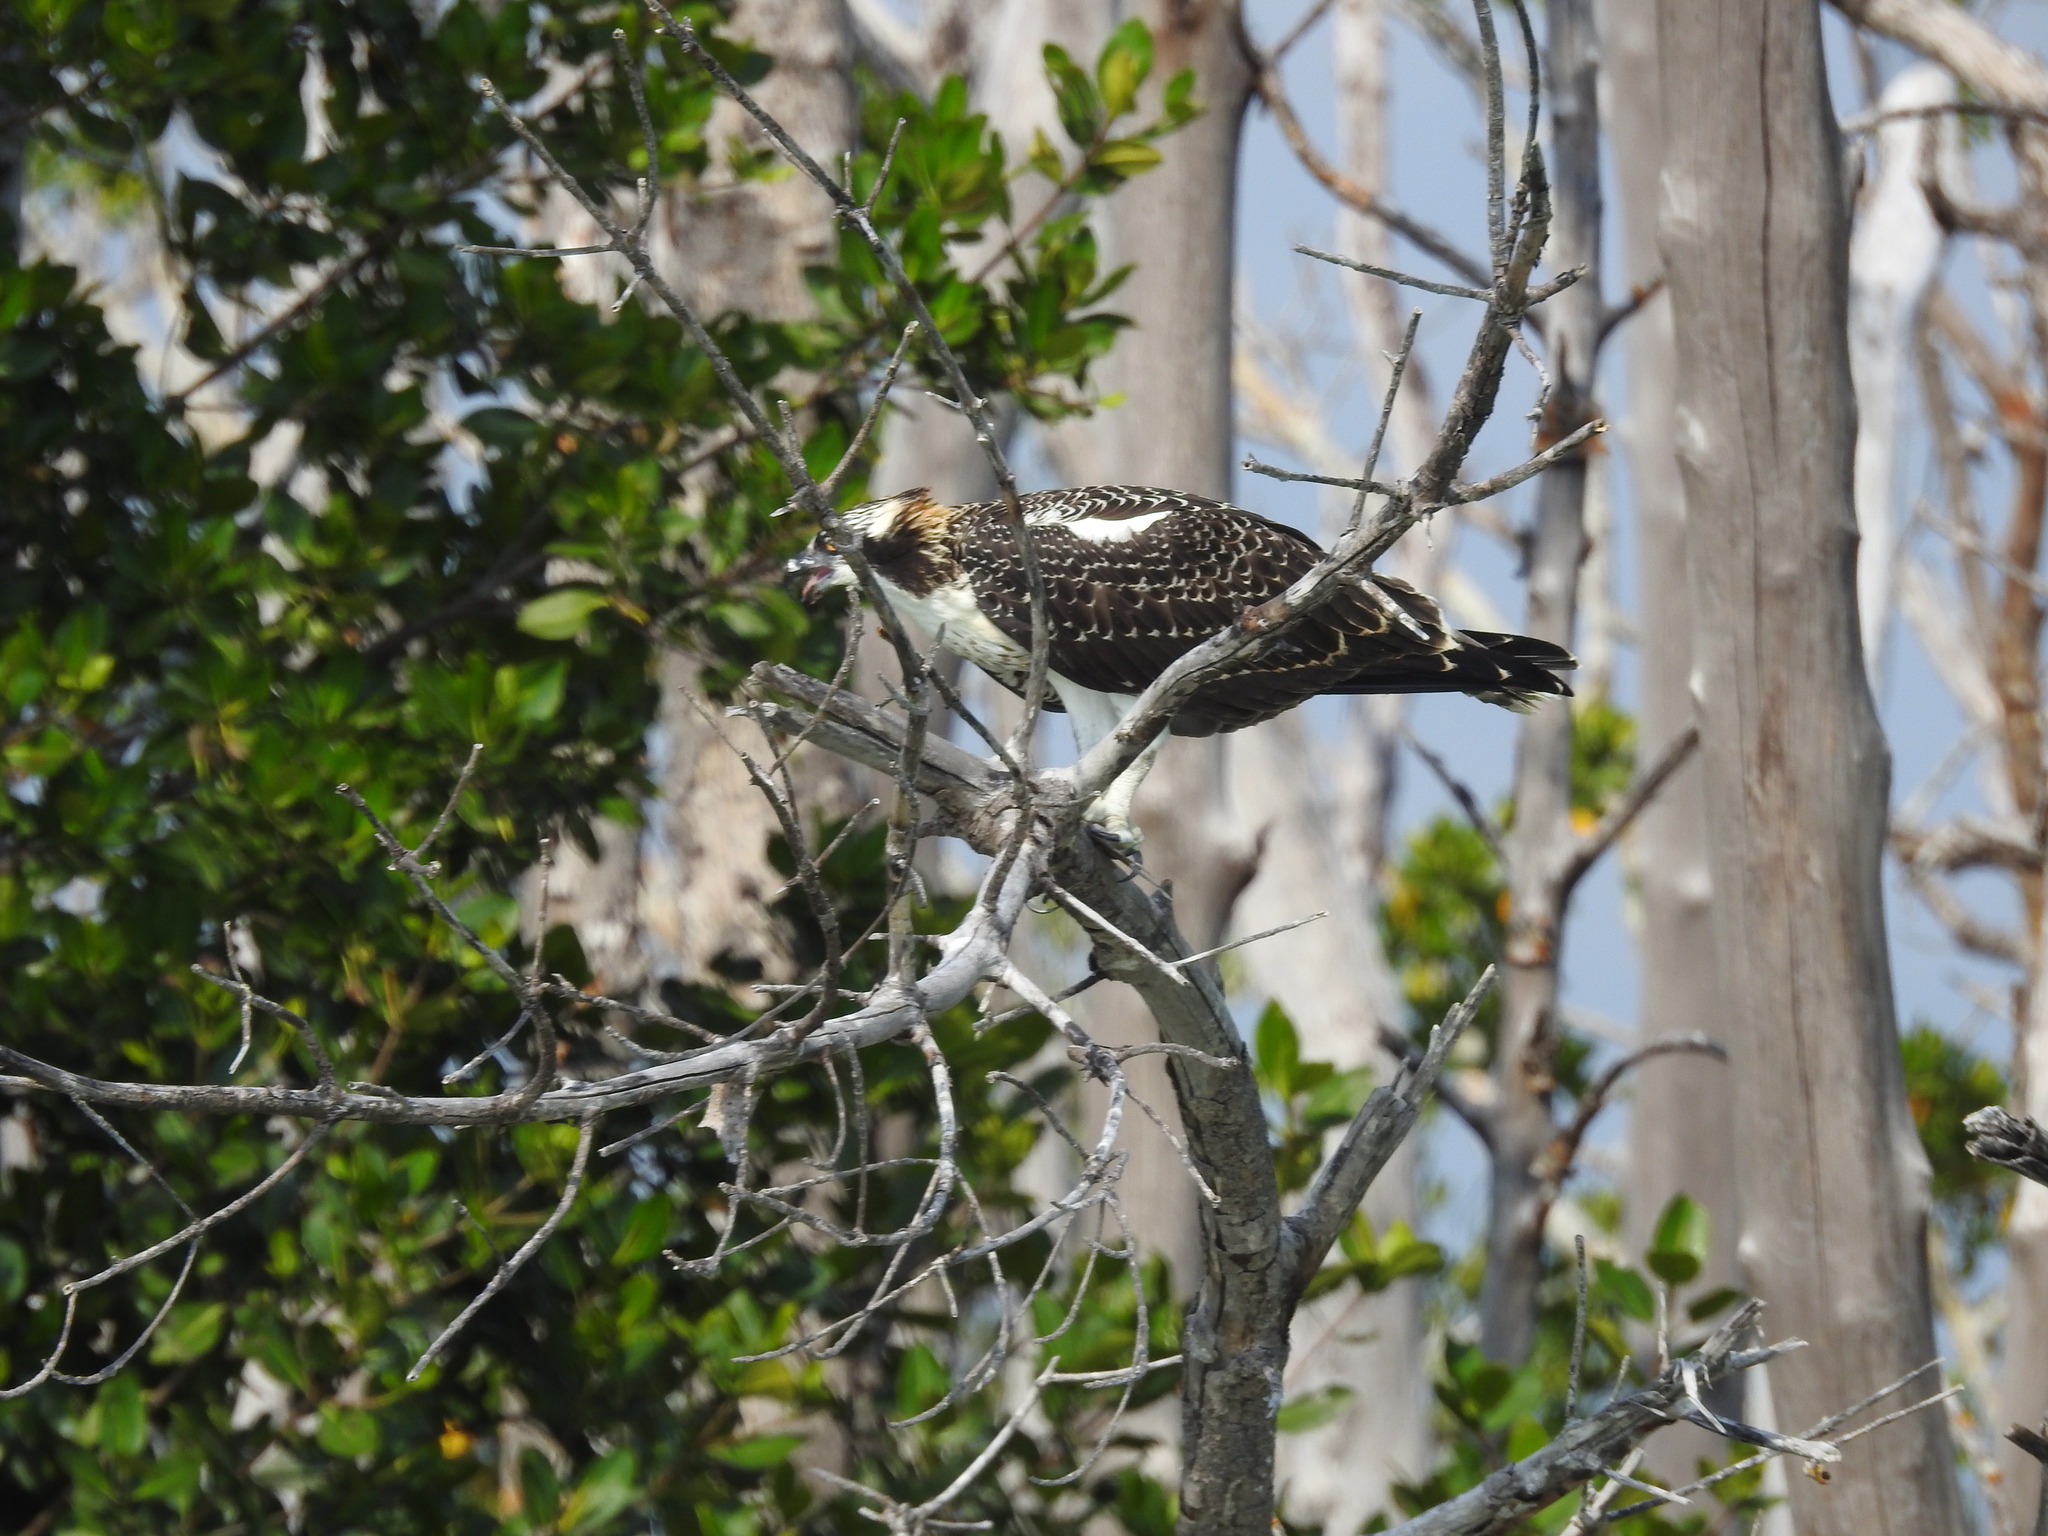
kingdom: Animalia
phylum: Chordata
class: Aves
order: Accipitriformes
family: Pandionidae
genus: Pandion
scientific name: Pandion haliaetus
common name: Osprey
